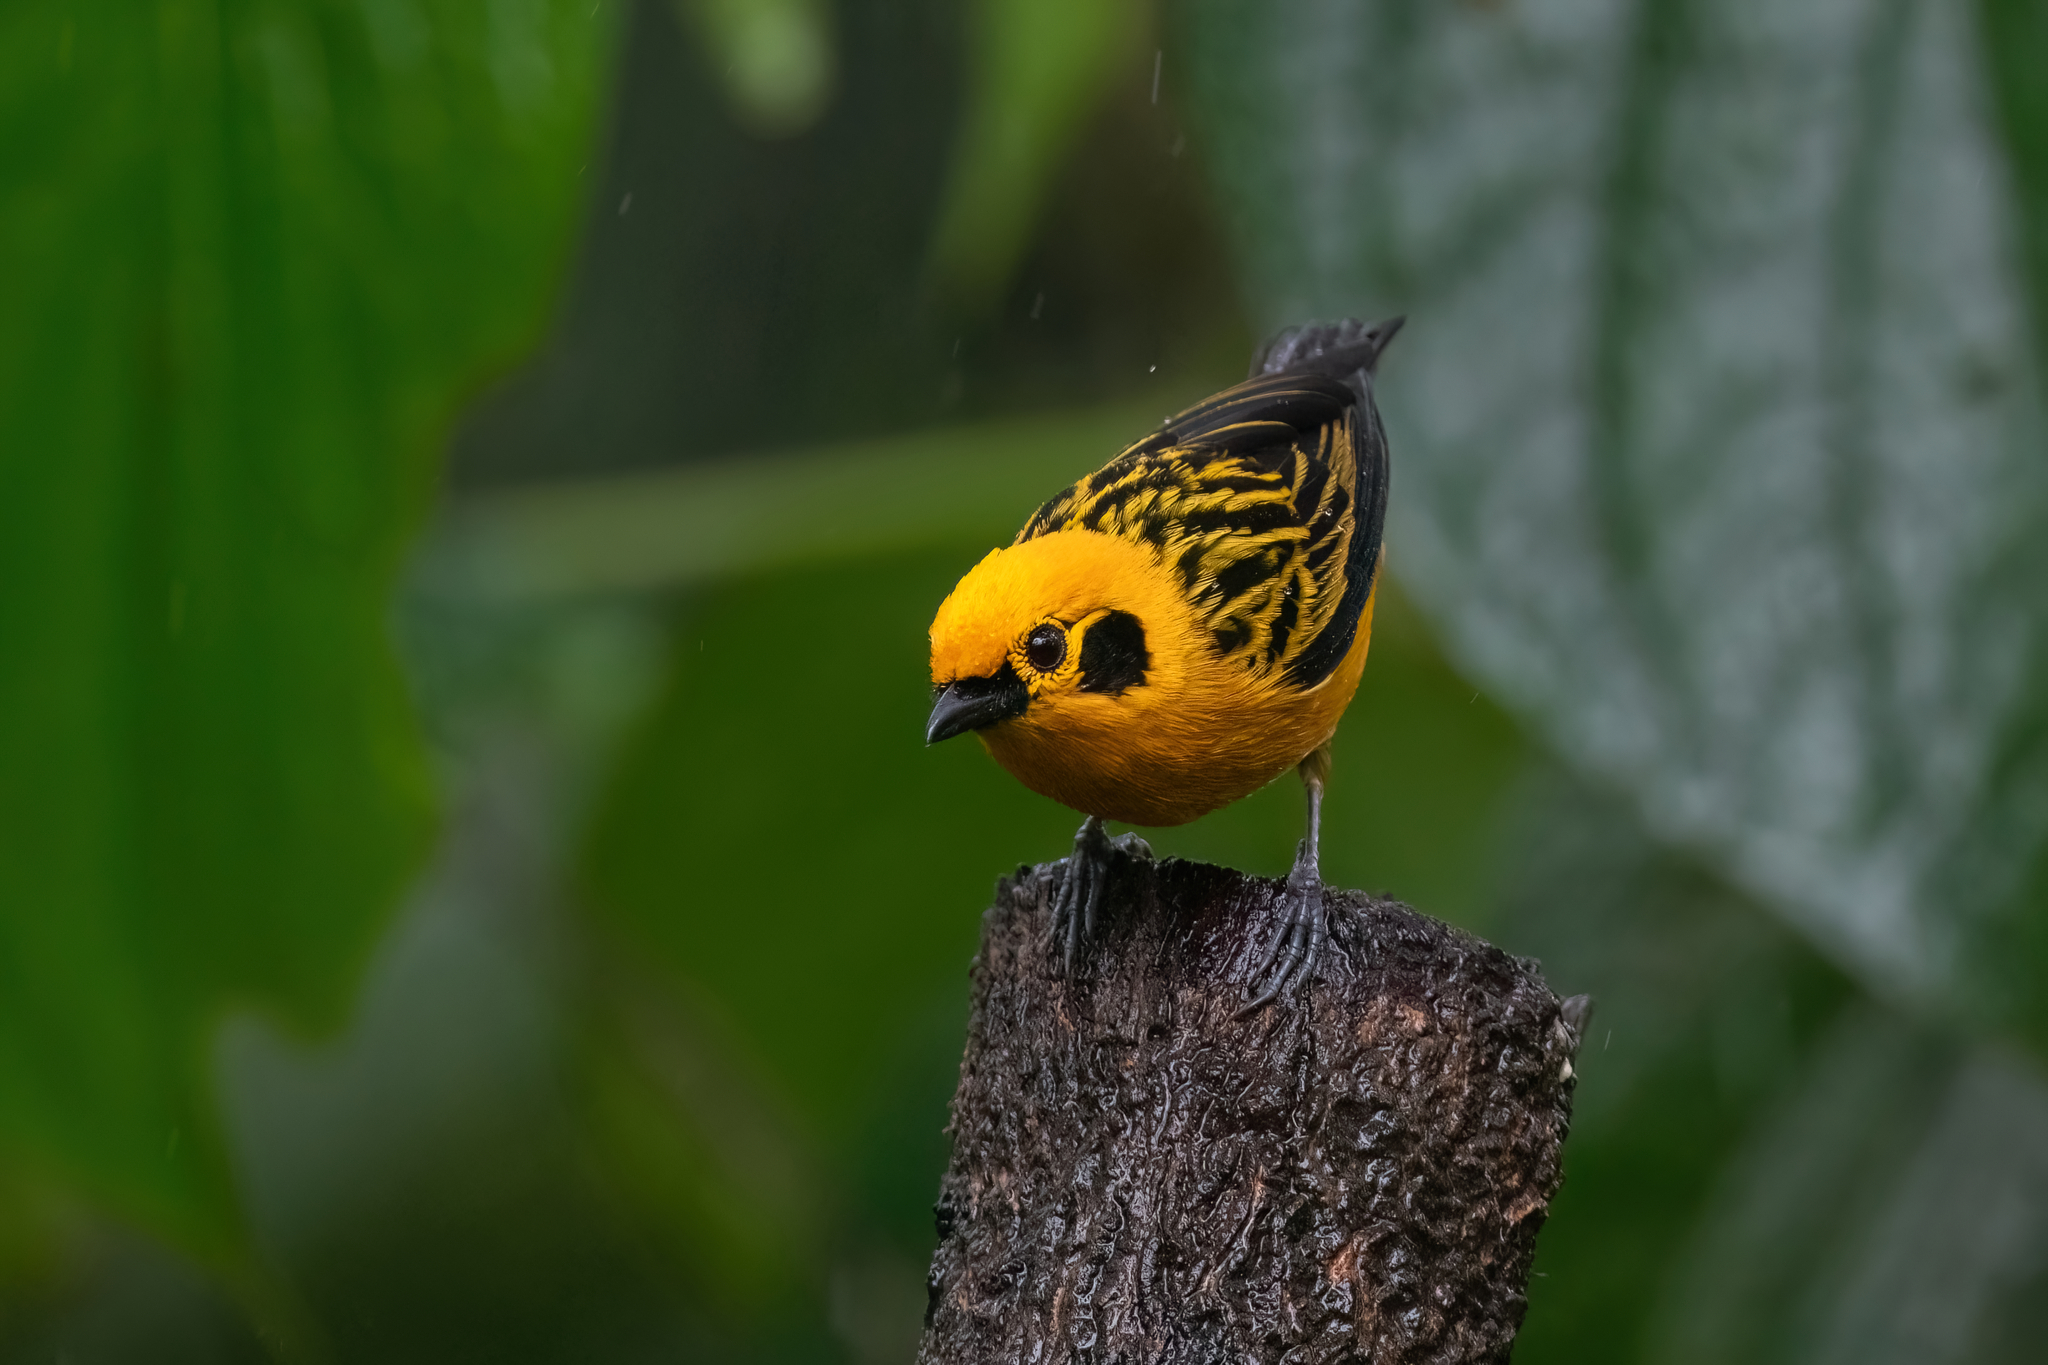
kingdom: Animalia
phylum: Chordata
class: Aves
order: Passeriformes
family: Thraupidae
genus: Tangara
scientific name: Tangara arthus
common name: Golden tanager
